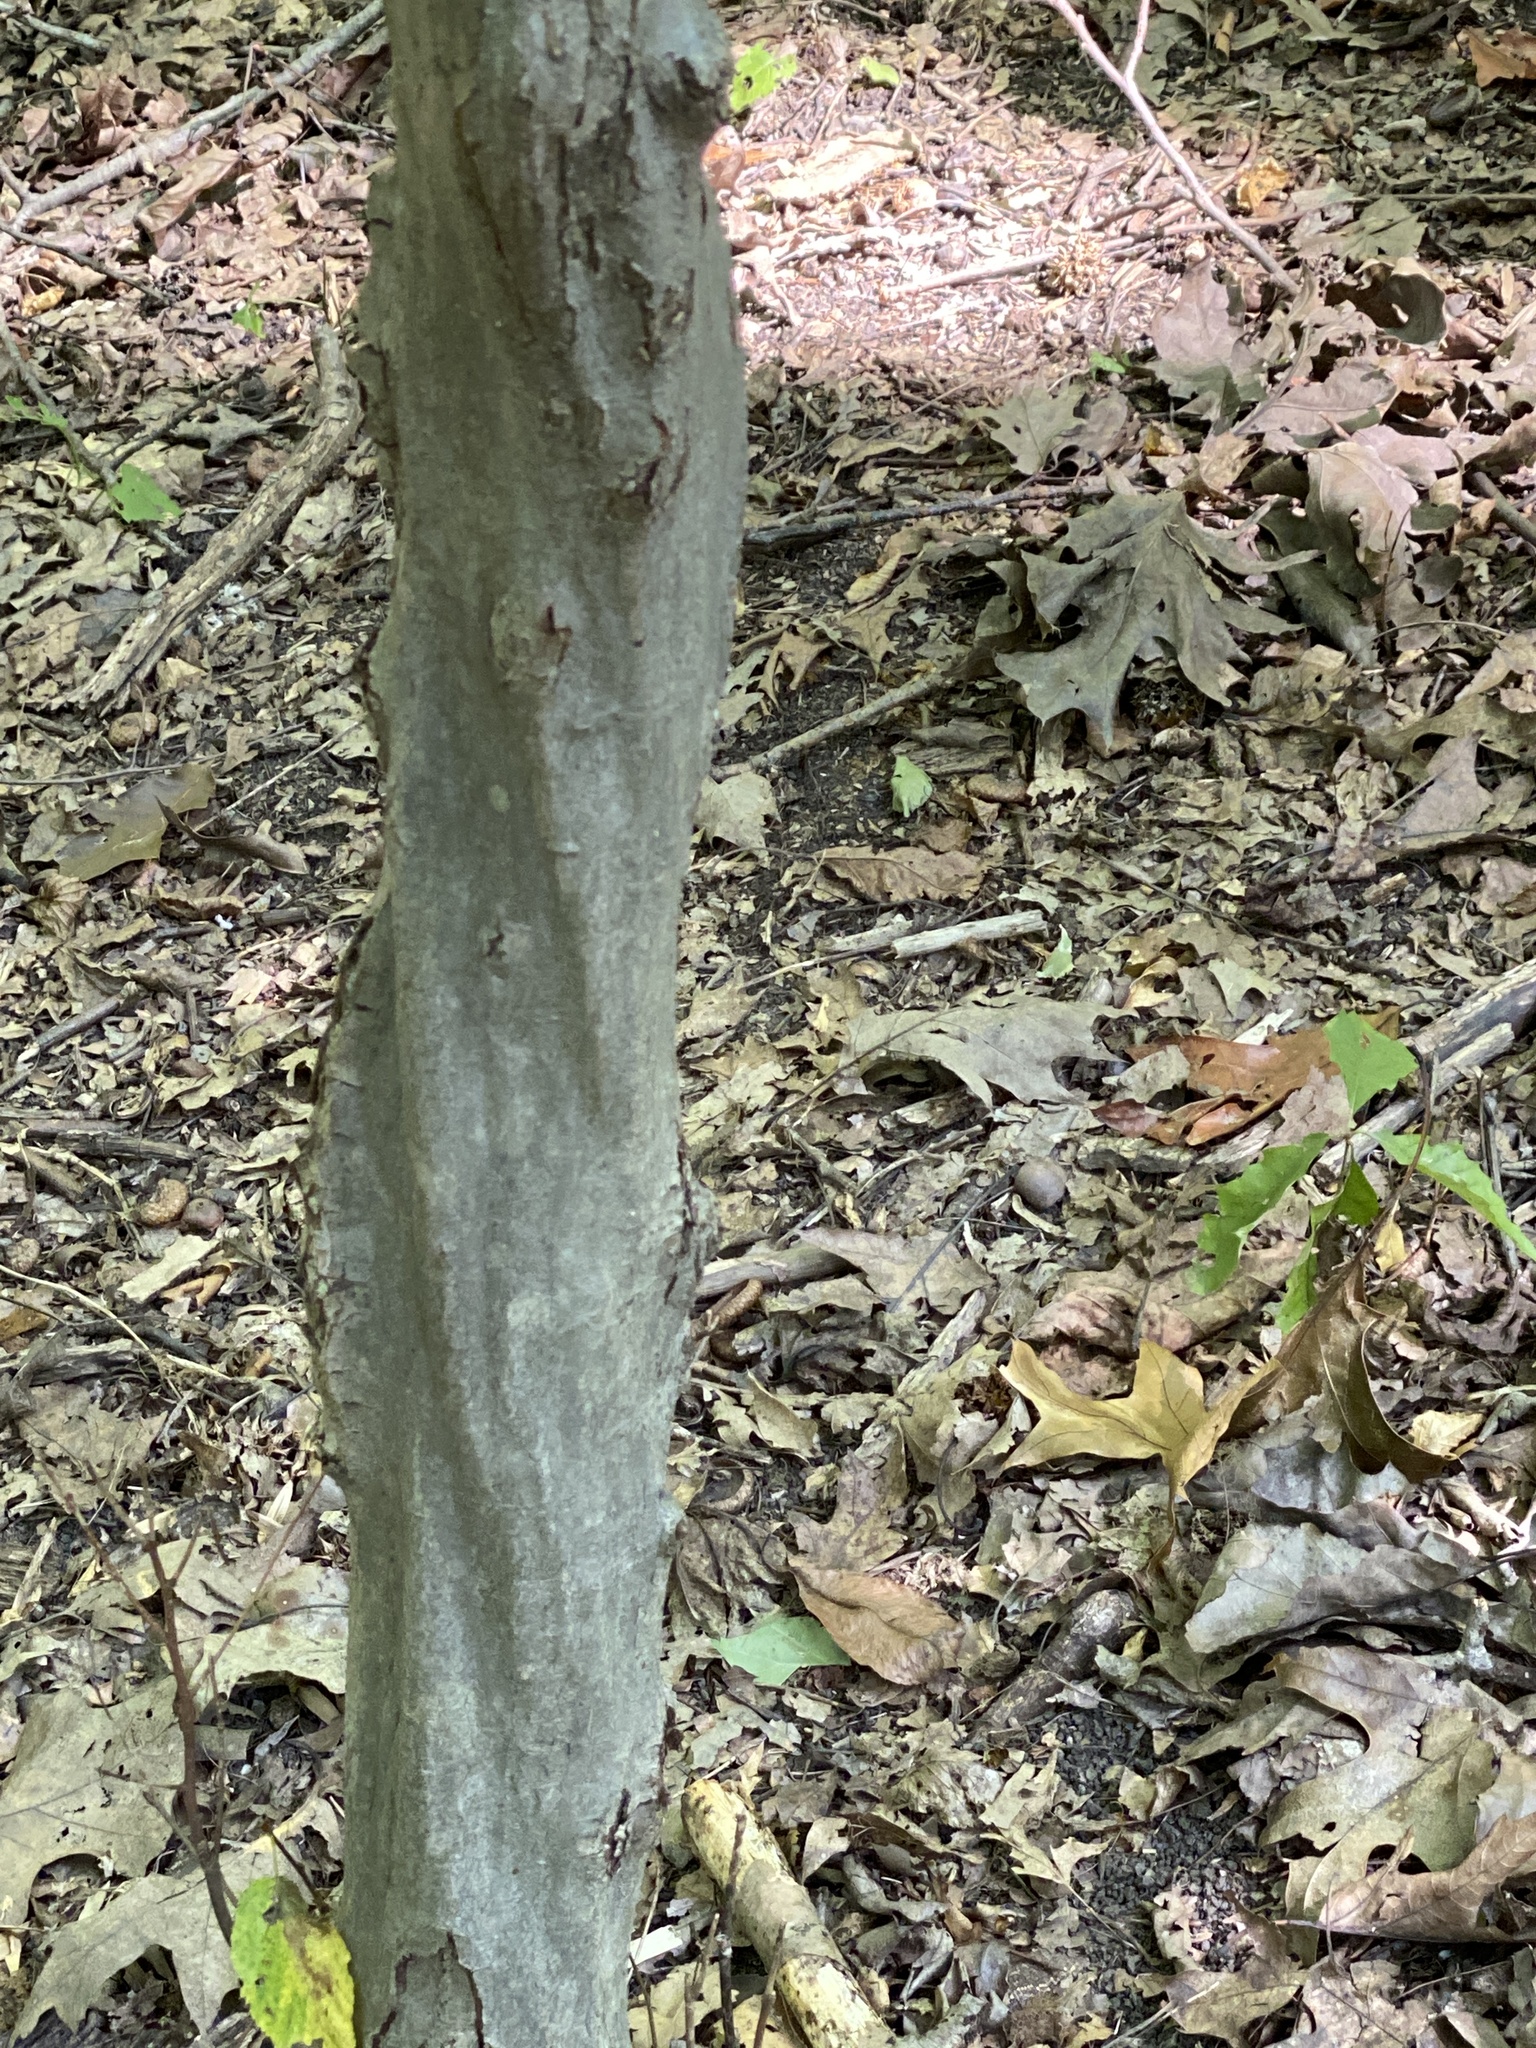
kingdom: Plantae
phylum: Tracheophyta
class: Magnoliopsida
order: Fagales
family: Betulaceae
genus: Carpinus
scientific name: Carpinus caroliniana
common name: American hornbeam
